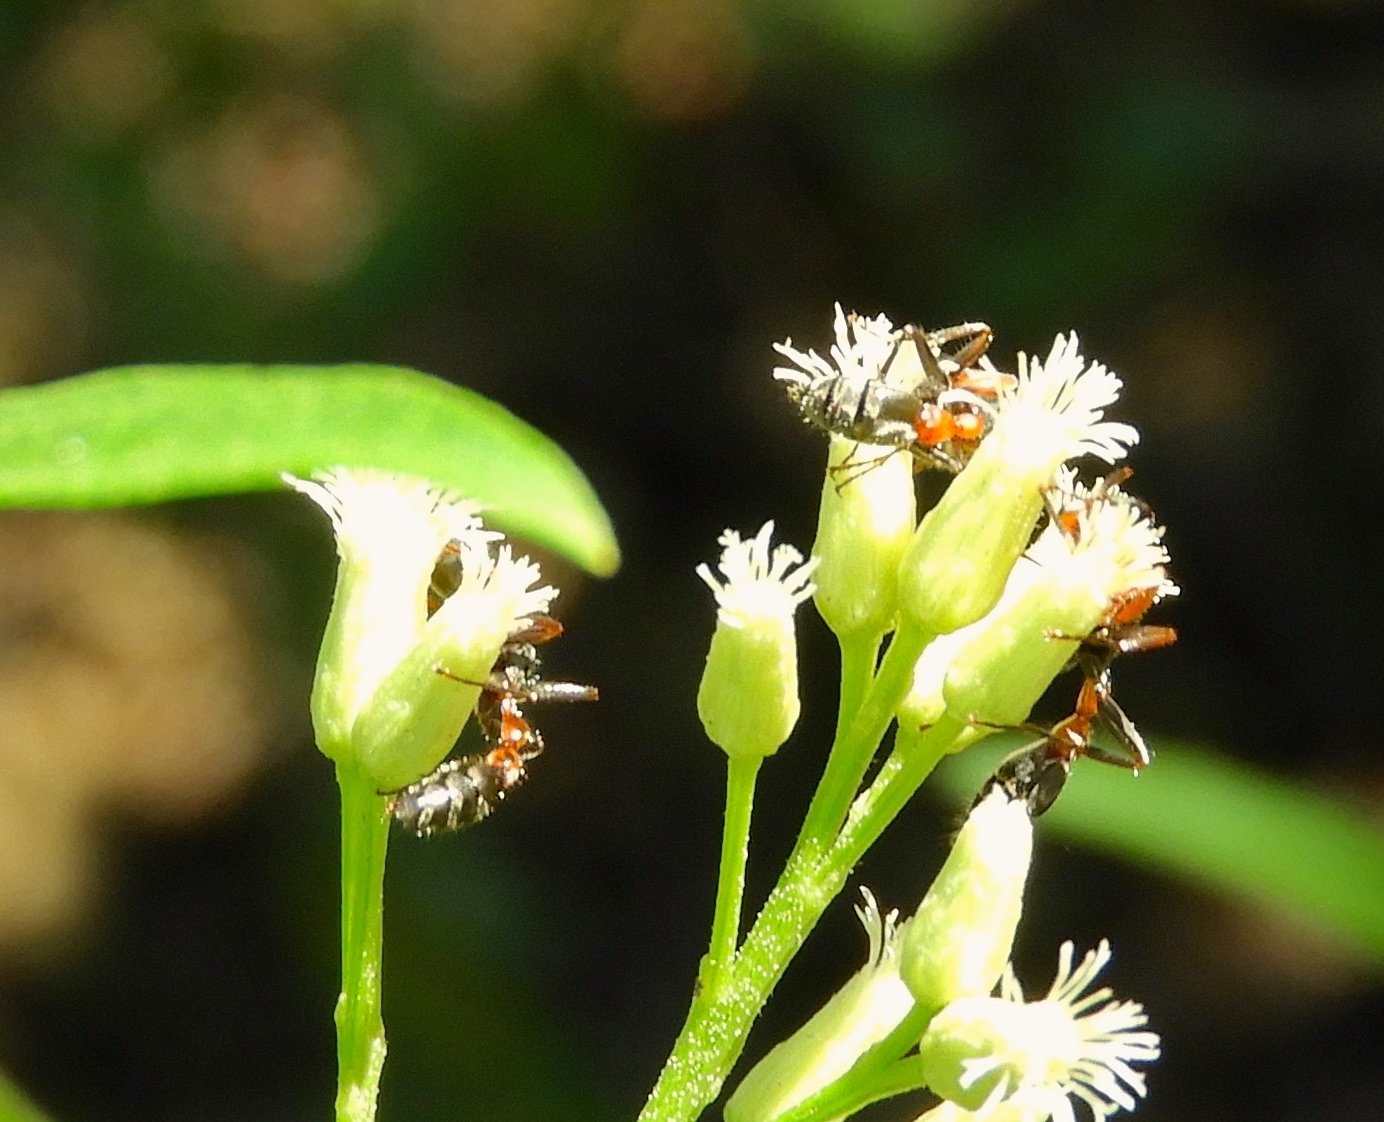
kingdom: Animalia
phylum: Arthropoda
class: Insecta
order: Hymenoptera
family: Formicidae
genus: Pseudomyrmex
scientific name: Pseudomyrmex gracilis
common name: Graceful twig ant
